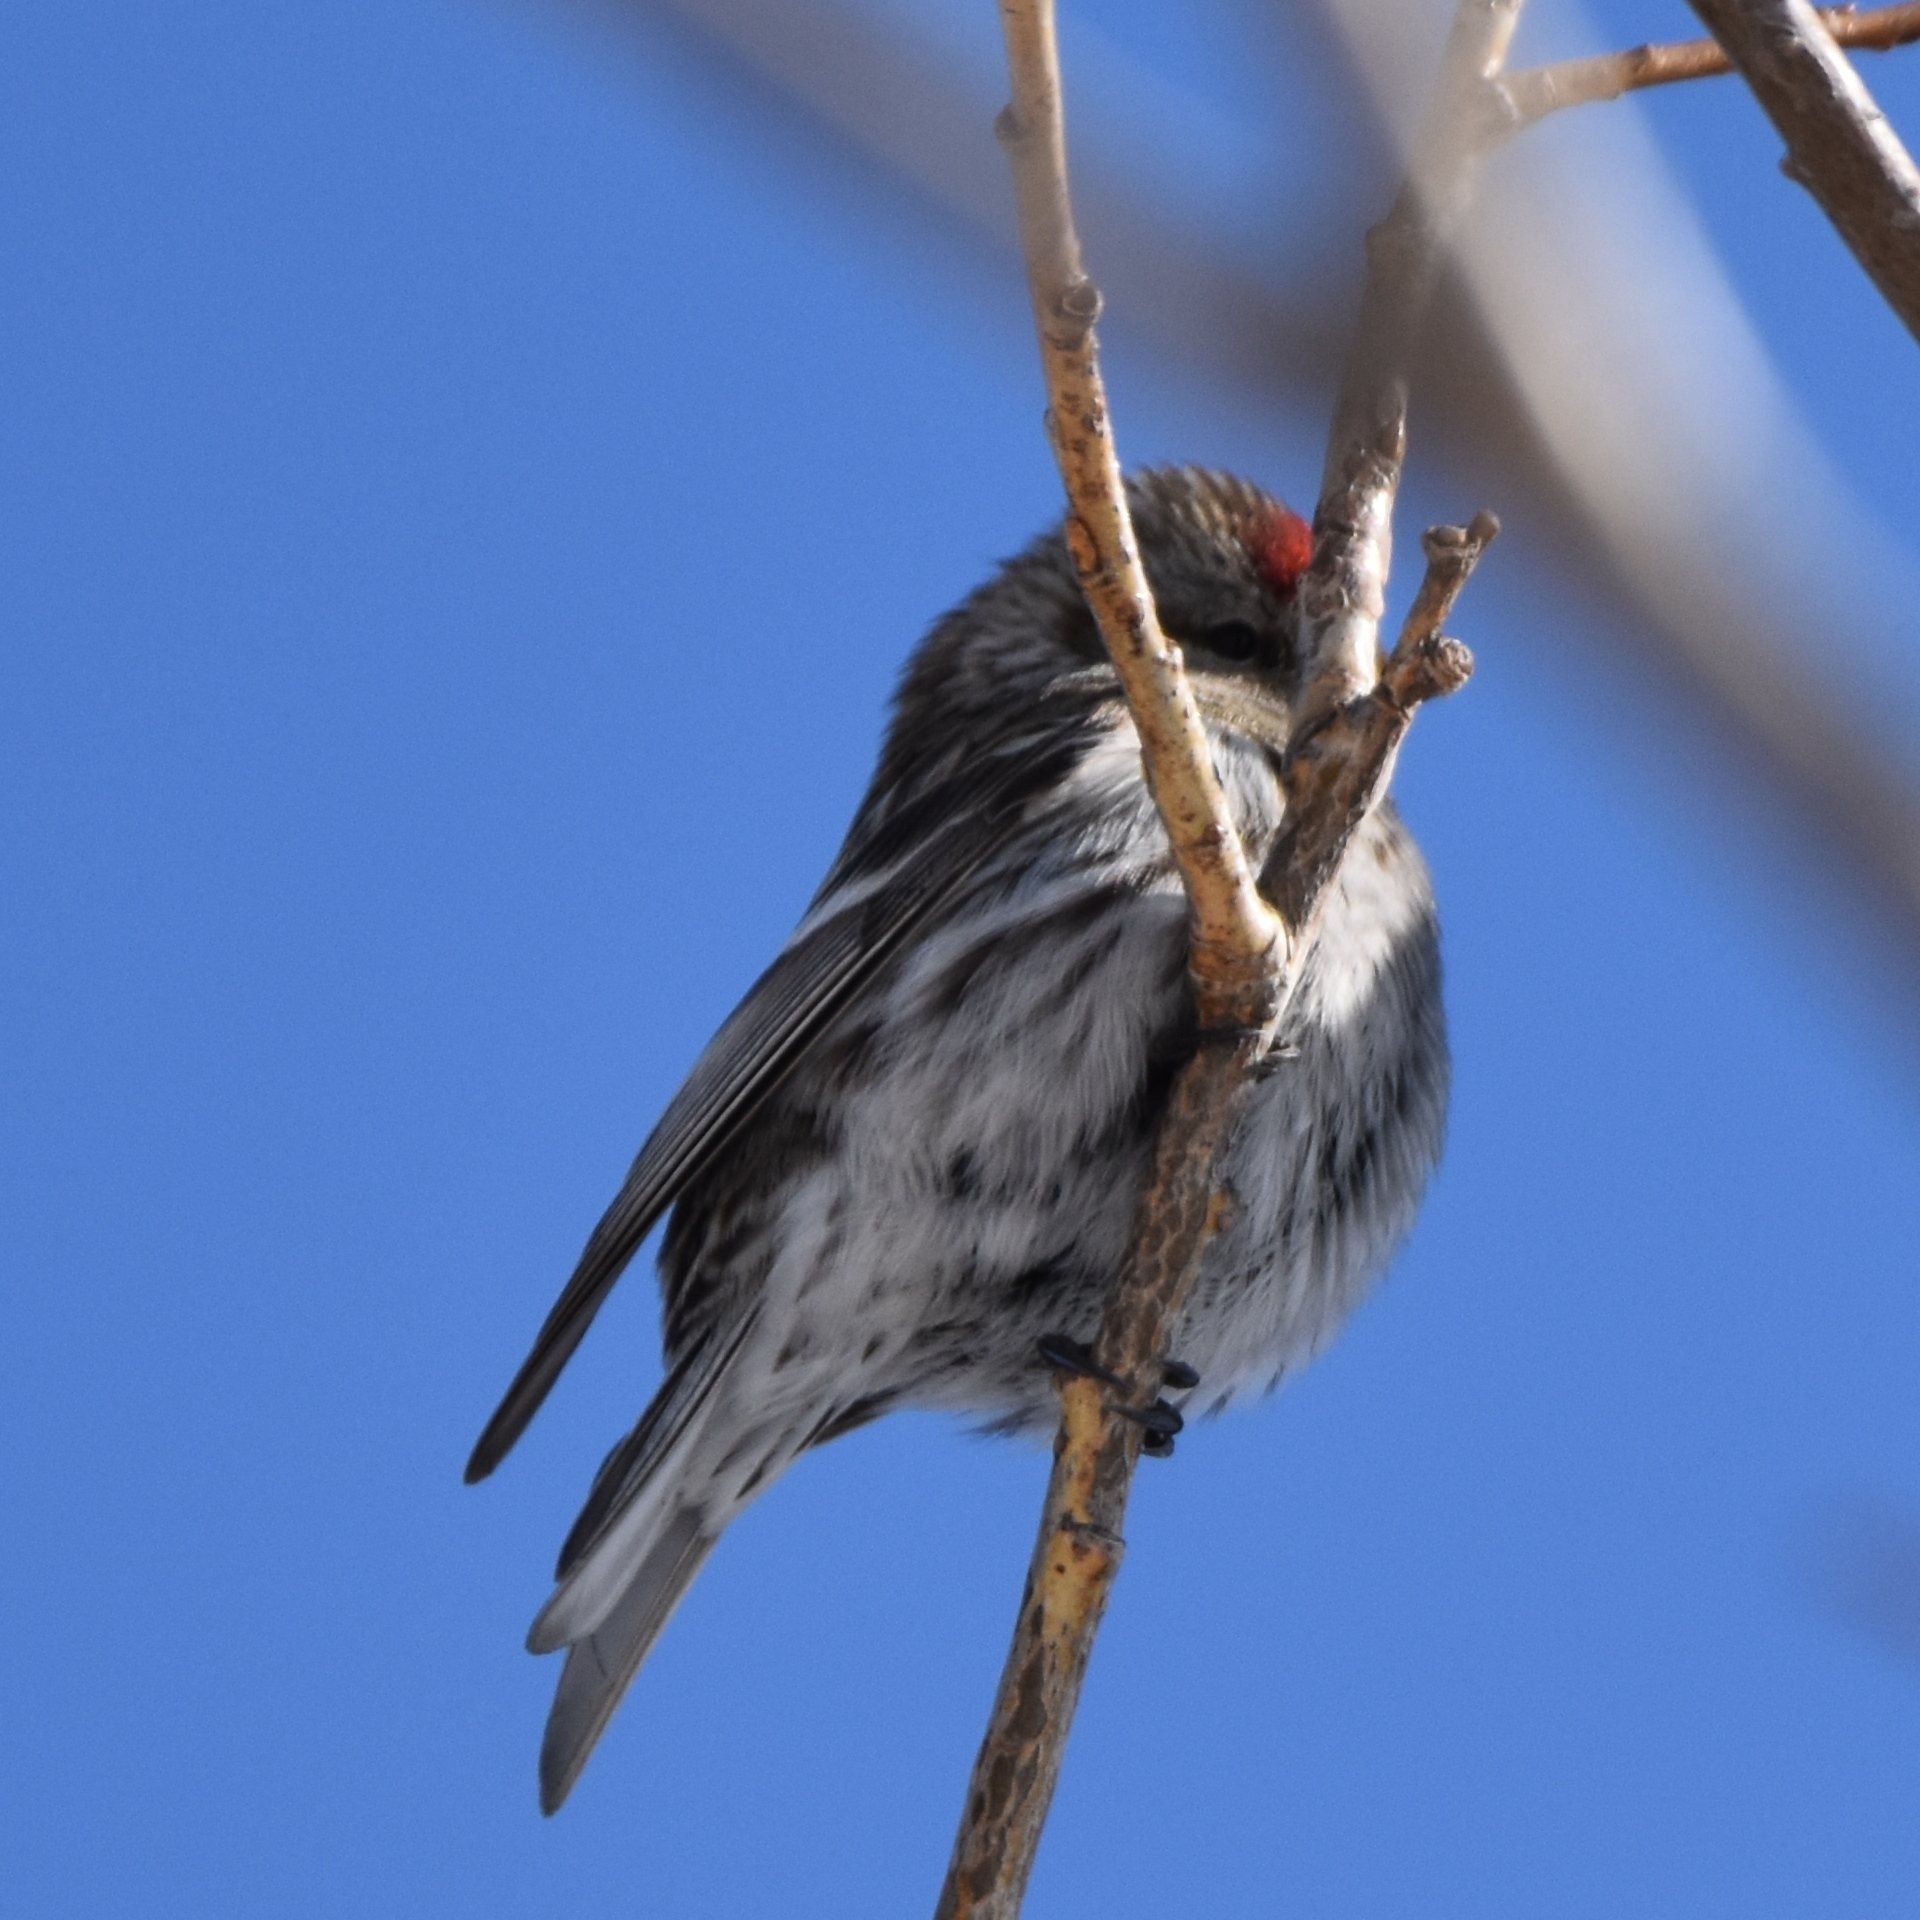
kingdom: Animalia
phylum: Chordata
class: Aves
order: Passeriformes
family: Fringillidae
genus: Acanthis
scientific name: Acanthis flammea
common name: Common redpoll
